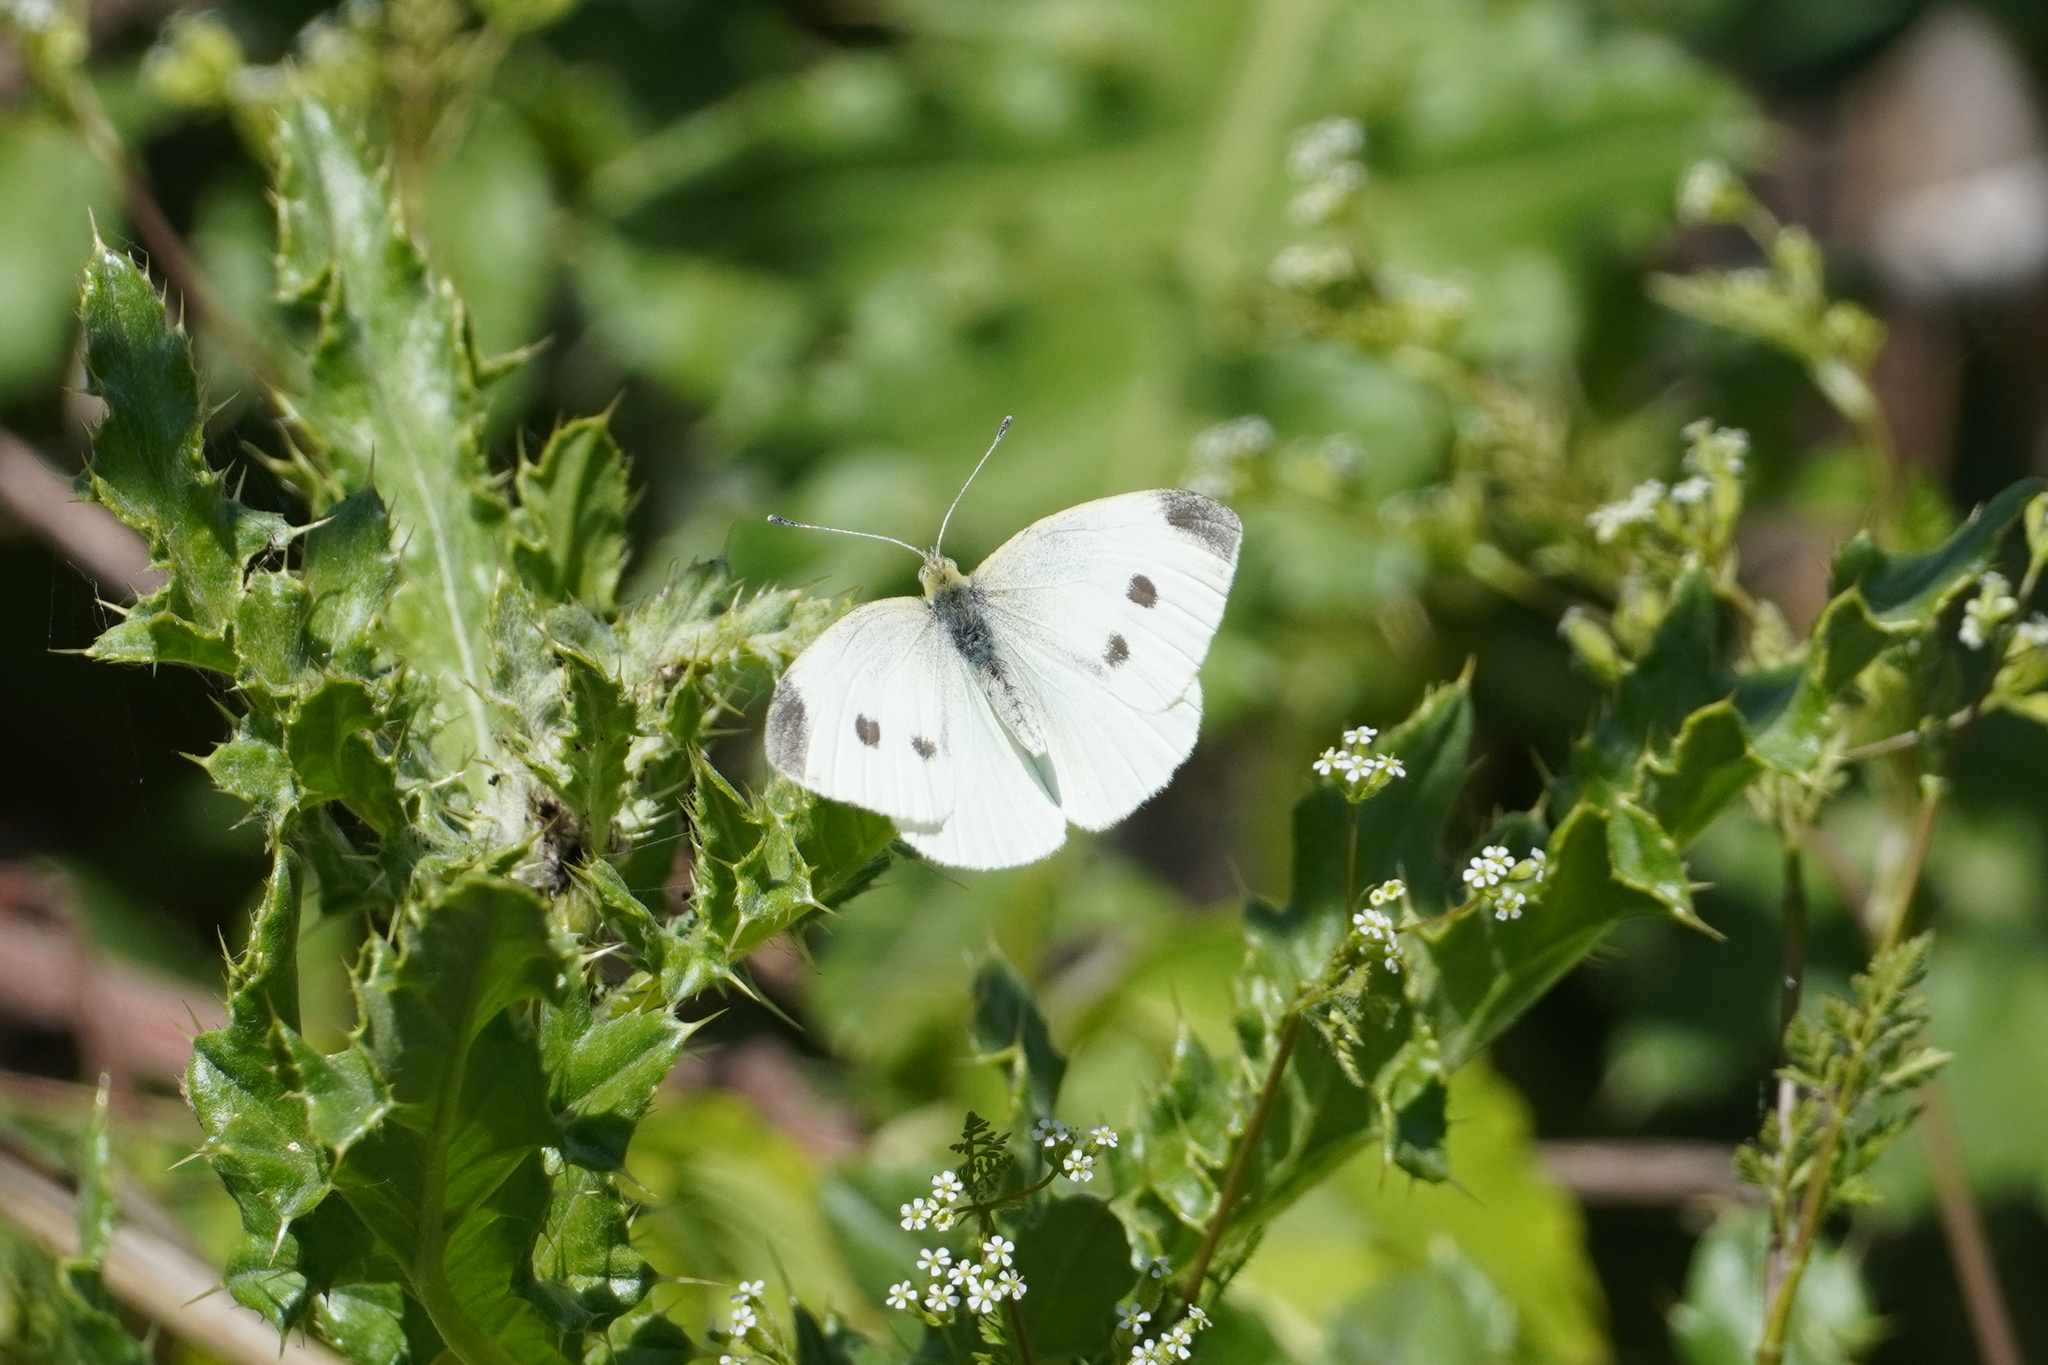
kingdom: Animalia
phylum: Arthropoda
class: Insecta
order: Lepidoptera
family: Pieridae
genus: Pieris
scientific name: Pieris rapae
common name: Small white
